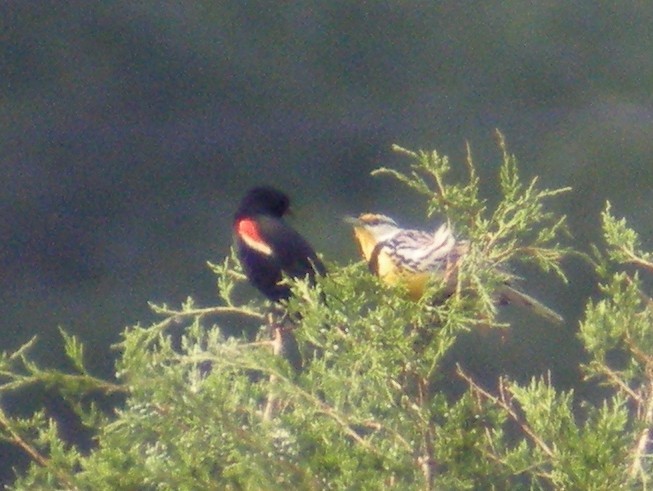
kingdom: Animalia
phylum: Chordata
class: Aves
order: Passeriformes
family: Icteridae
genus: Sturnella
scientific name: Sturnella magna
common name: Eastern meadowlark
